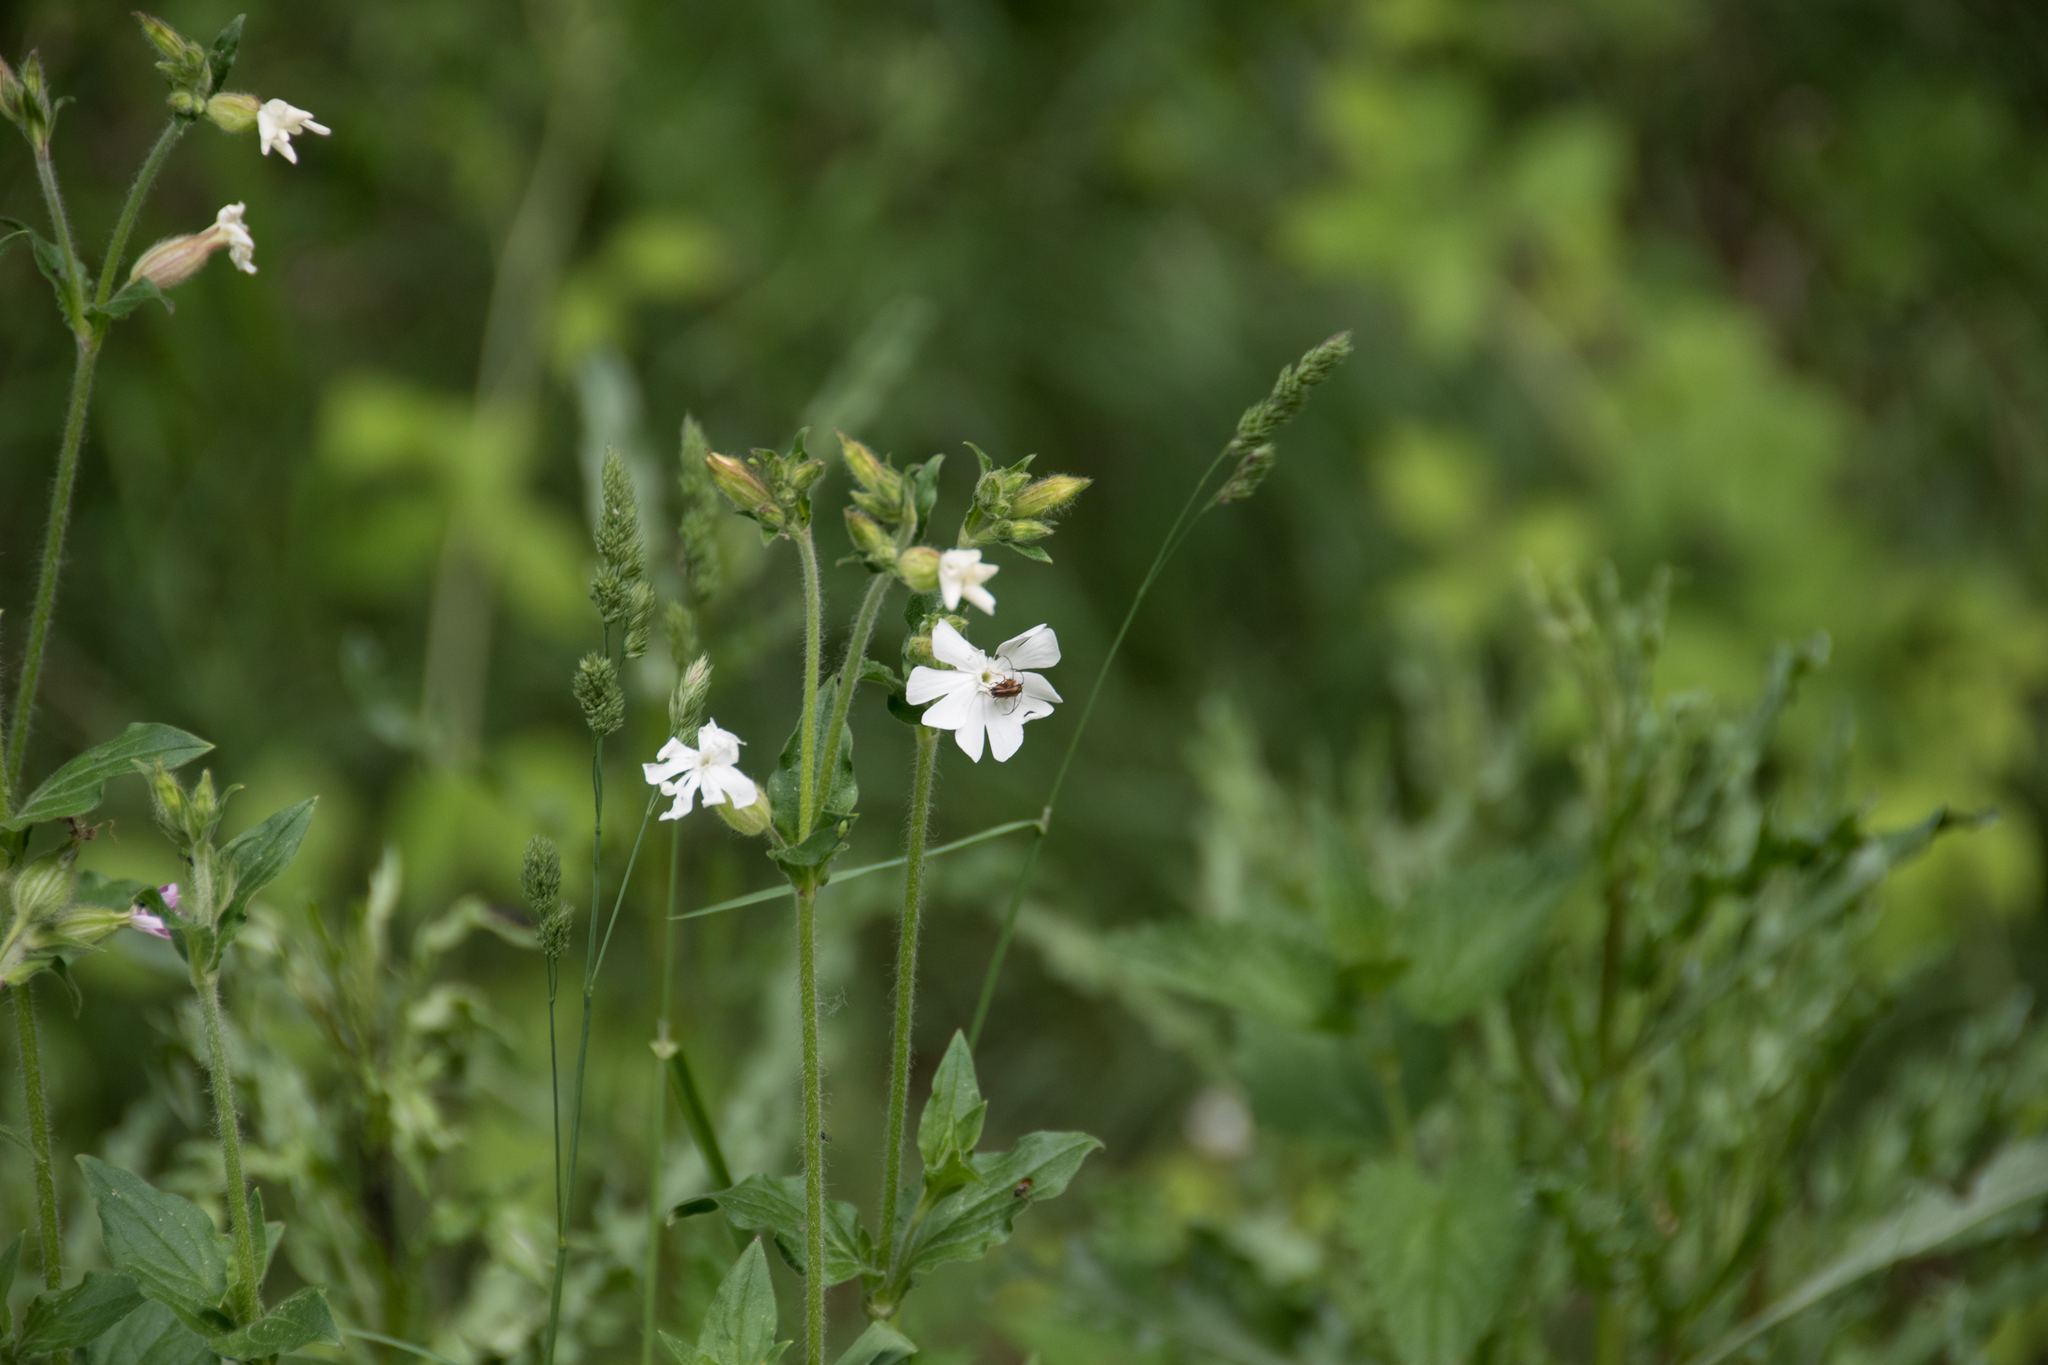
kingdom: Plantae
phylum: Tracheophyta
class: Magnoliopsida
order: Caryophyllales
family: Caryophyllaceae
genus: Silene
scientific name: Silene latifolia
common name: White campion
